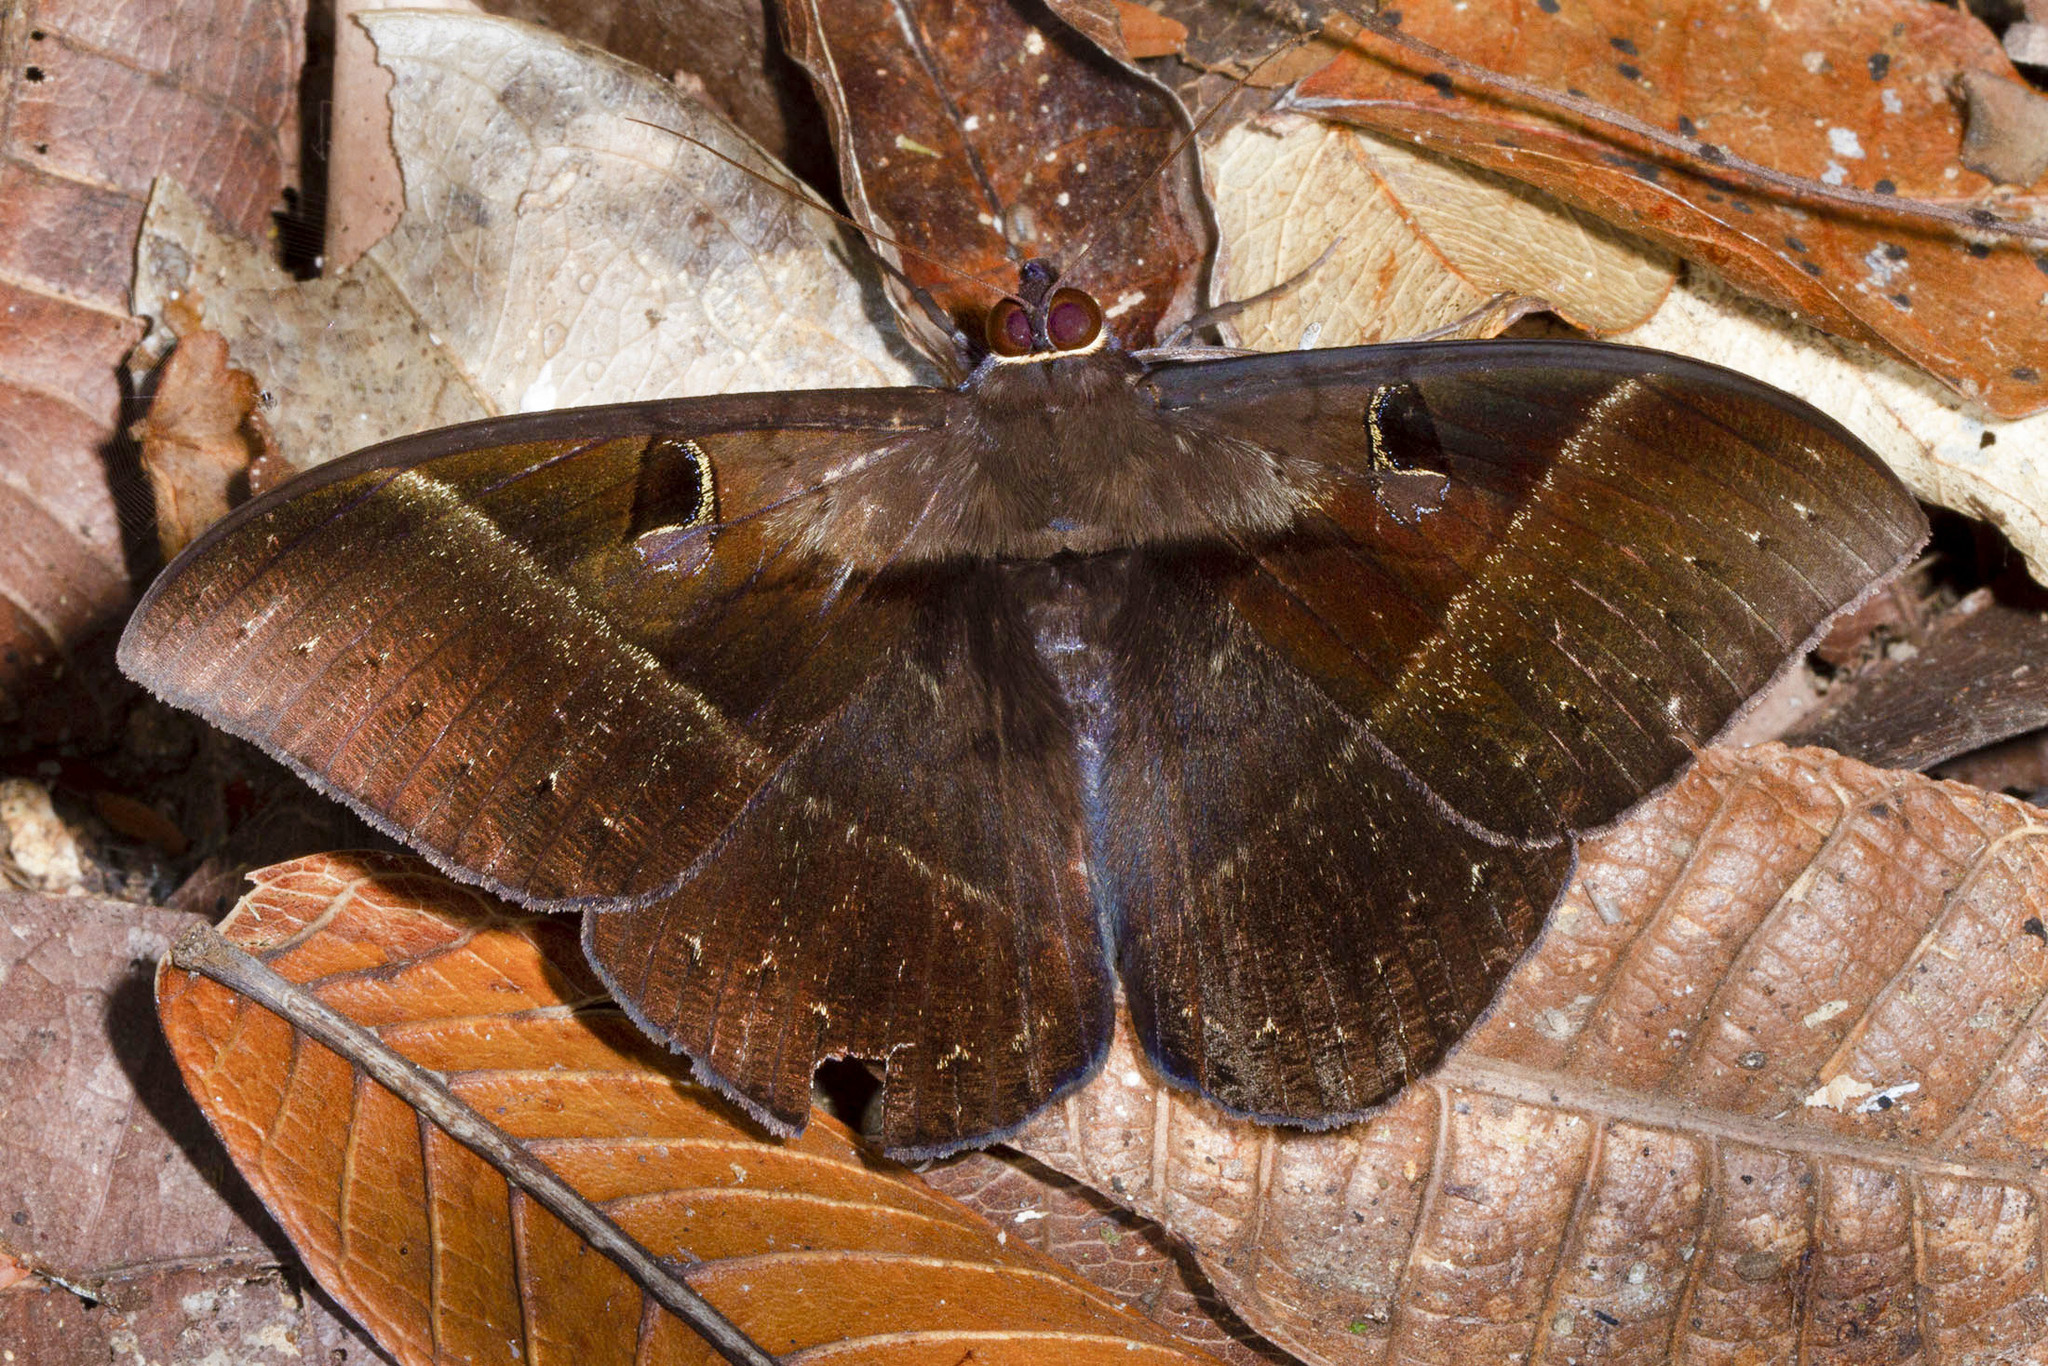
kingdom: Animalia
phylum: Arthropoda
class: Insecta
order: Lepidoptera
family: Erebidae
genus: Cyligramma
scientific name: Cyligramma joa
